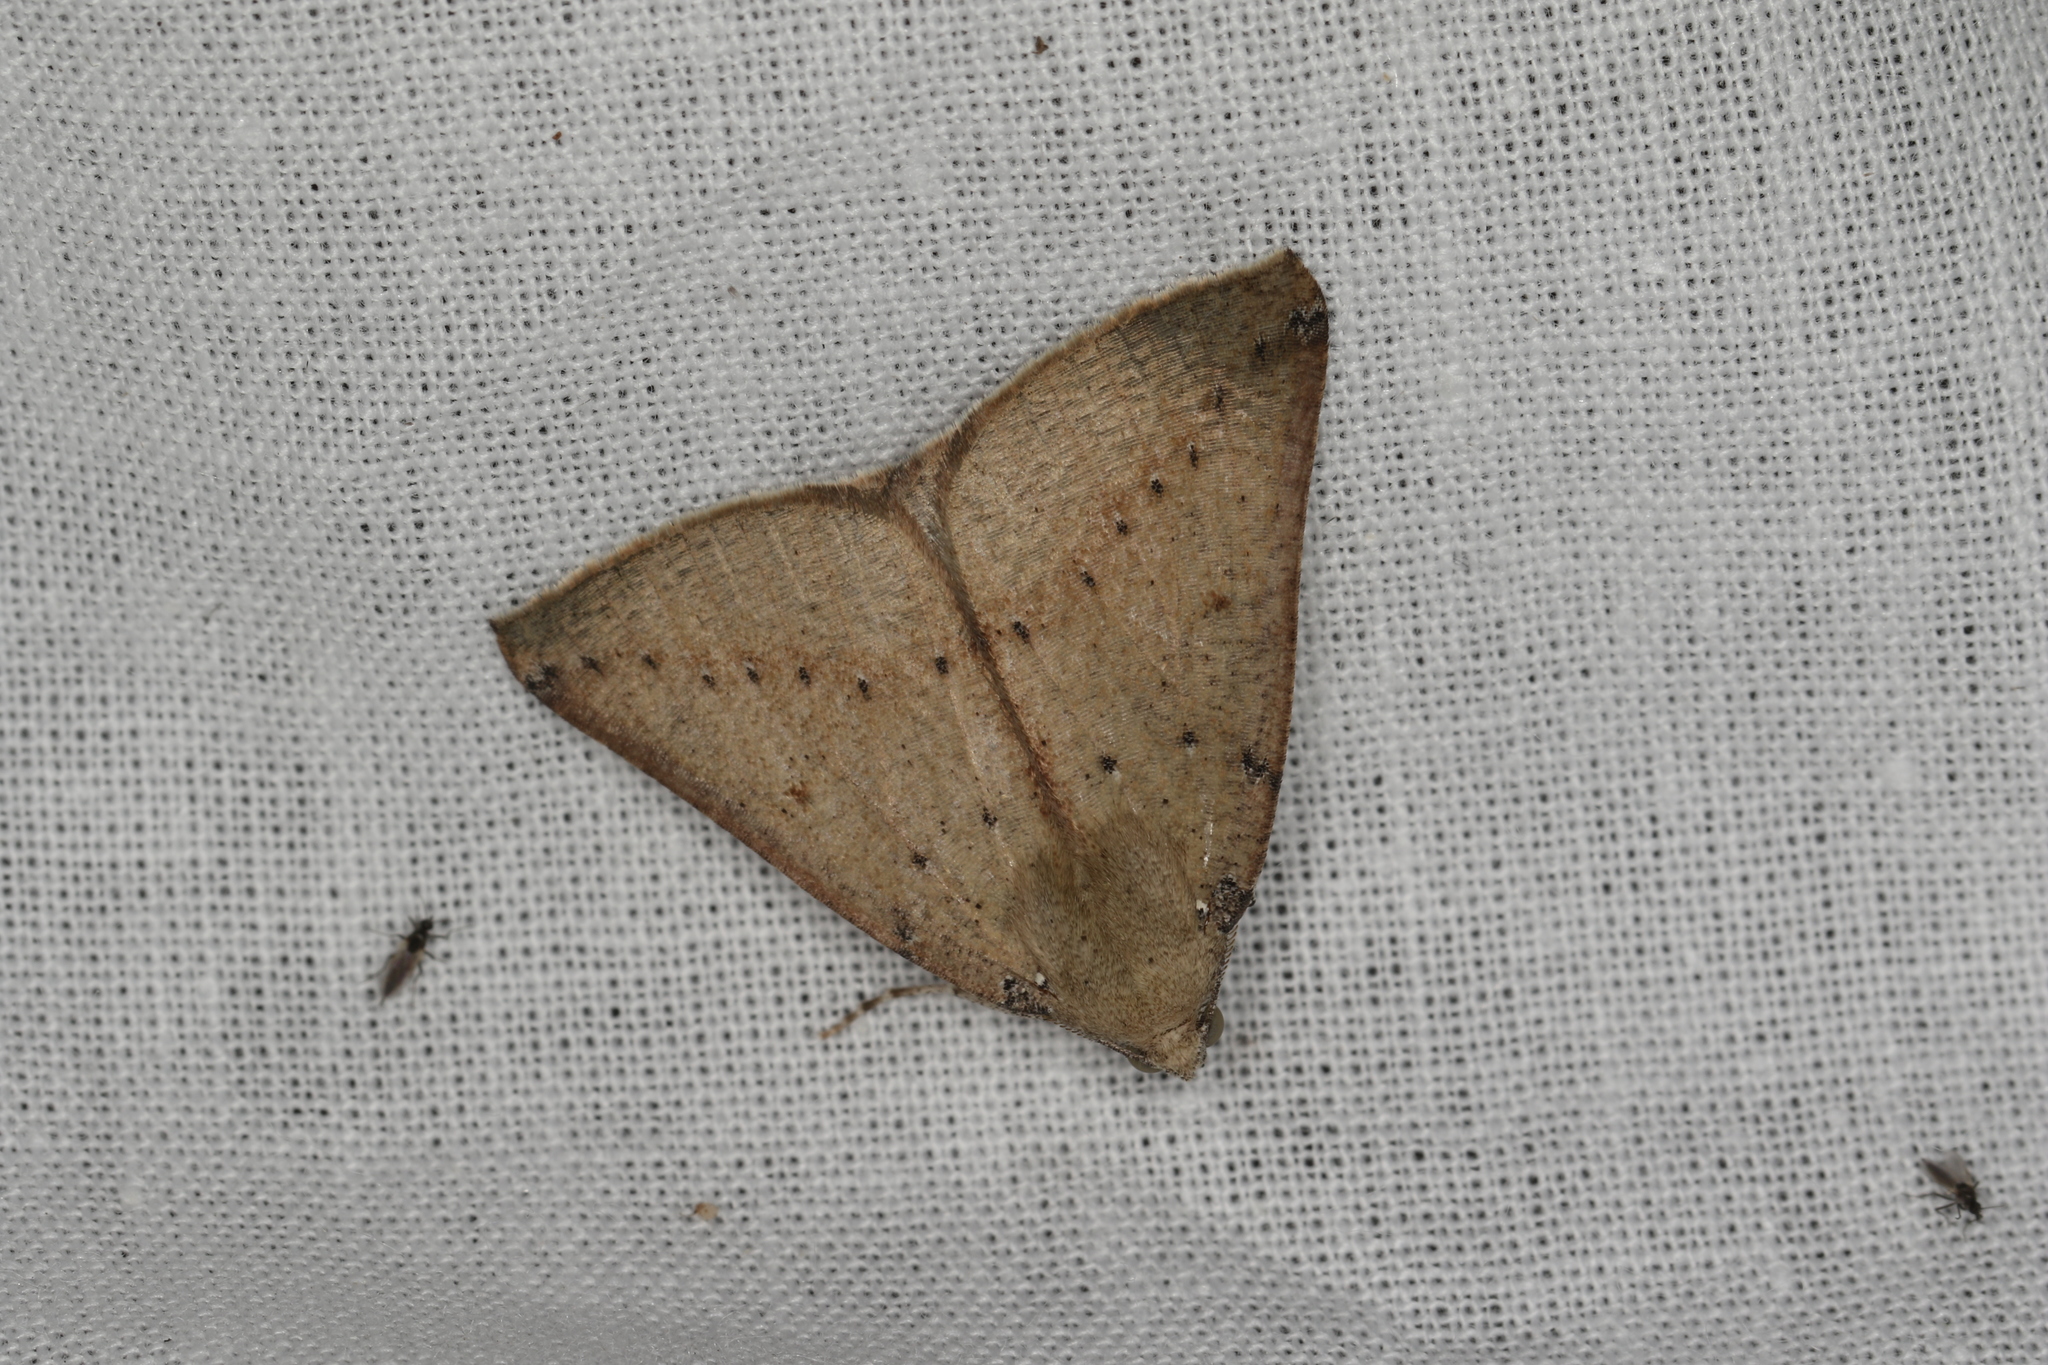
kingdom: Animalia
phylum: Arthropoda
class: Insecta
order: Lepidoptera
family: Geometridae
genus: Cassythaphaga
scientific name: Cassythaphaga petrochroa
